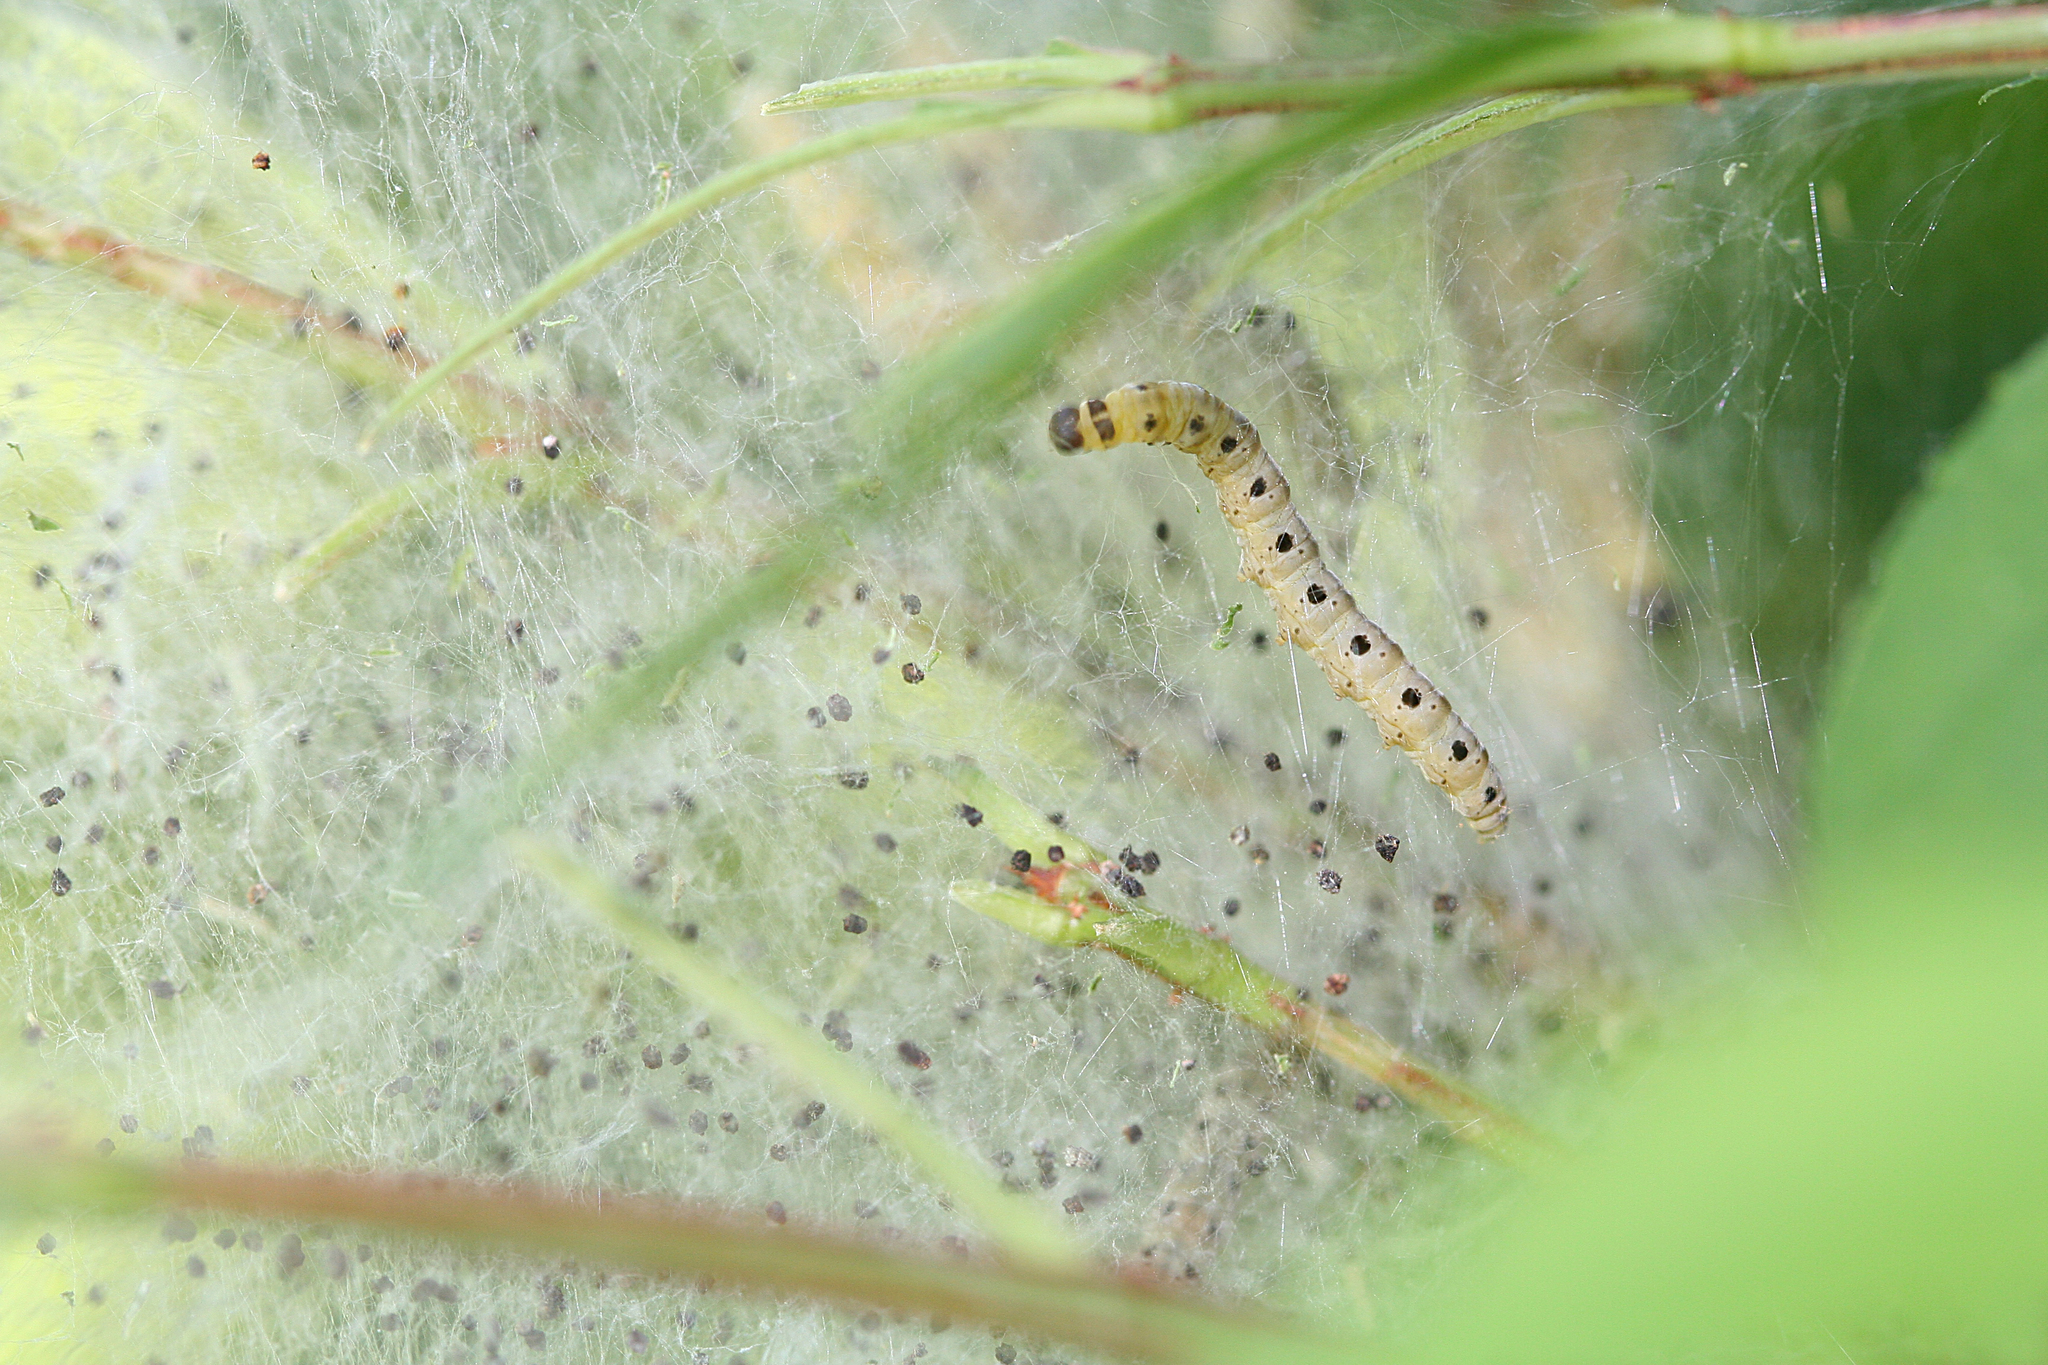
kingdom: Animalia
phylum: Arthropoda
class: Insecta
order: Lepidoptera
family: Yponomeutidae
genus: Yponomeuta
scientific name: Yponomeuta cagnagellus
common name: Spindle ermine
